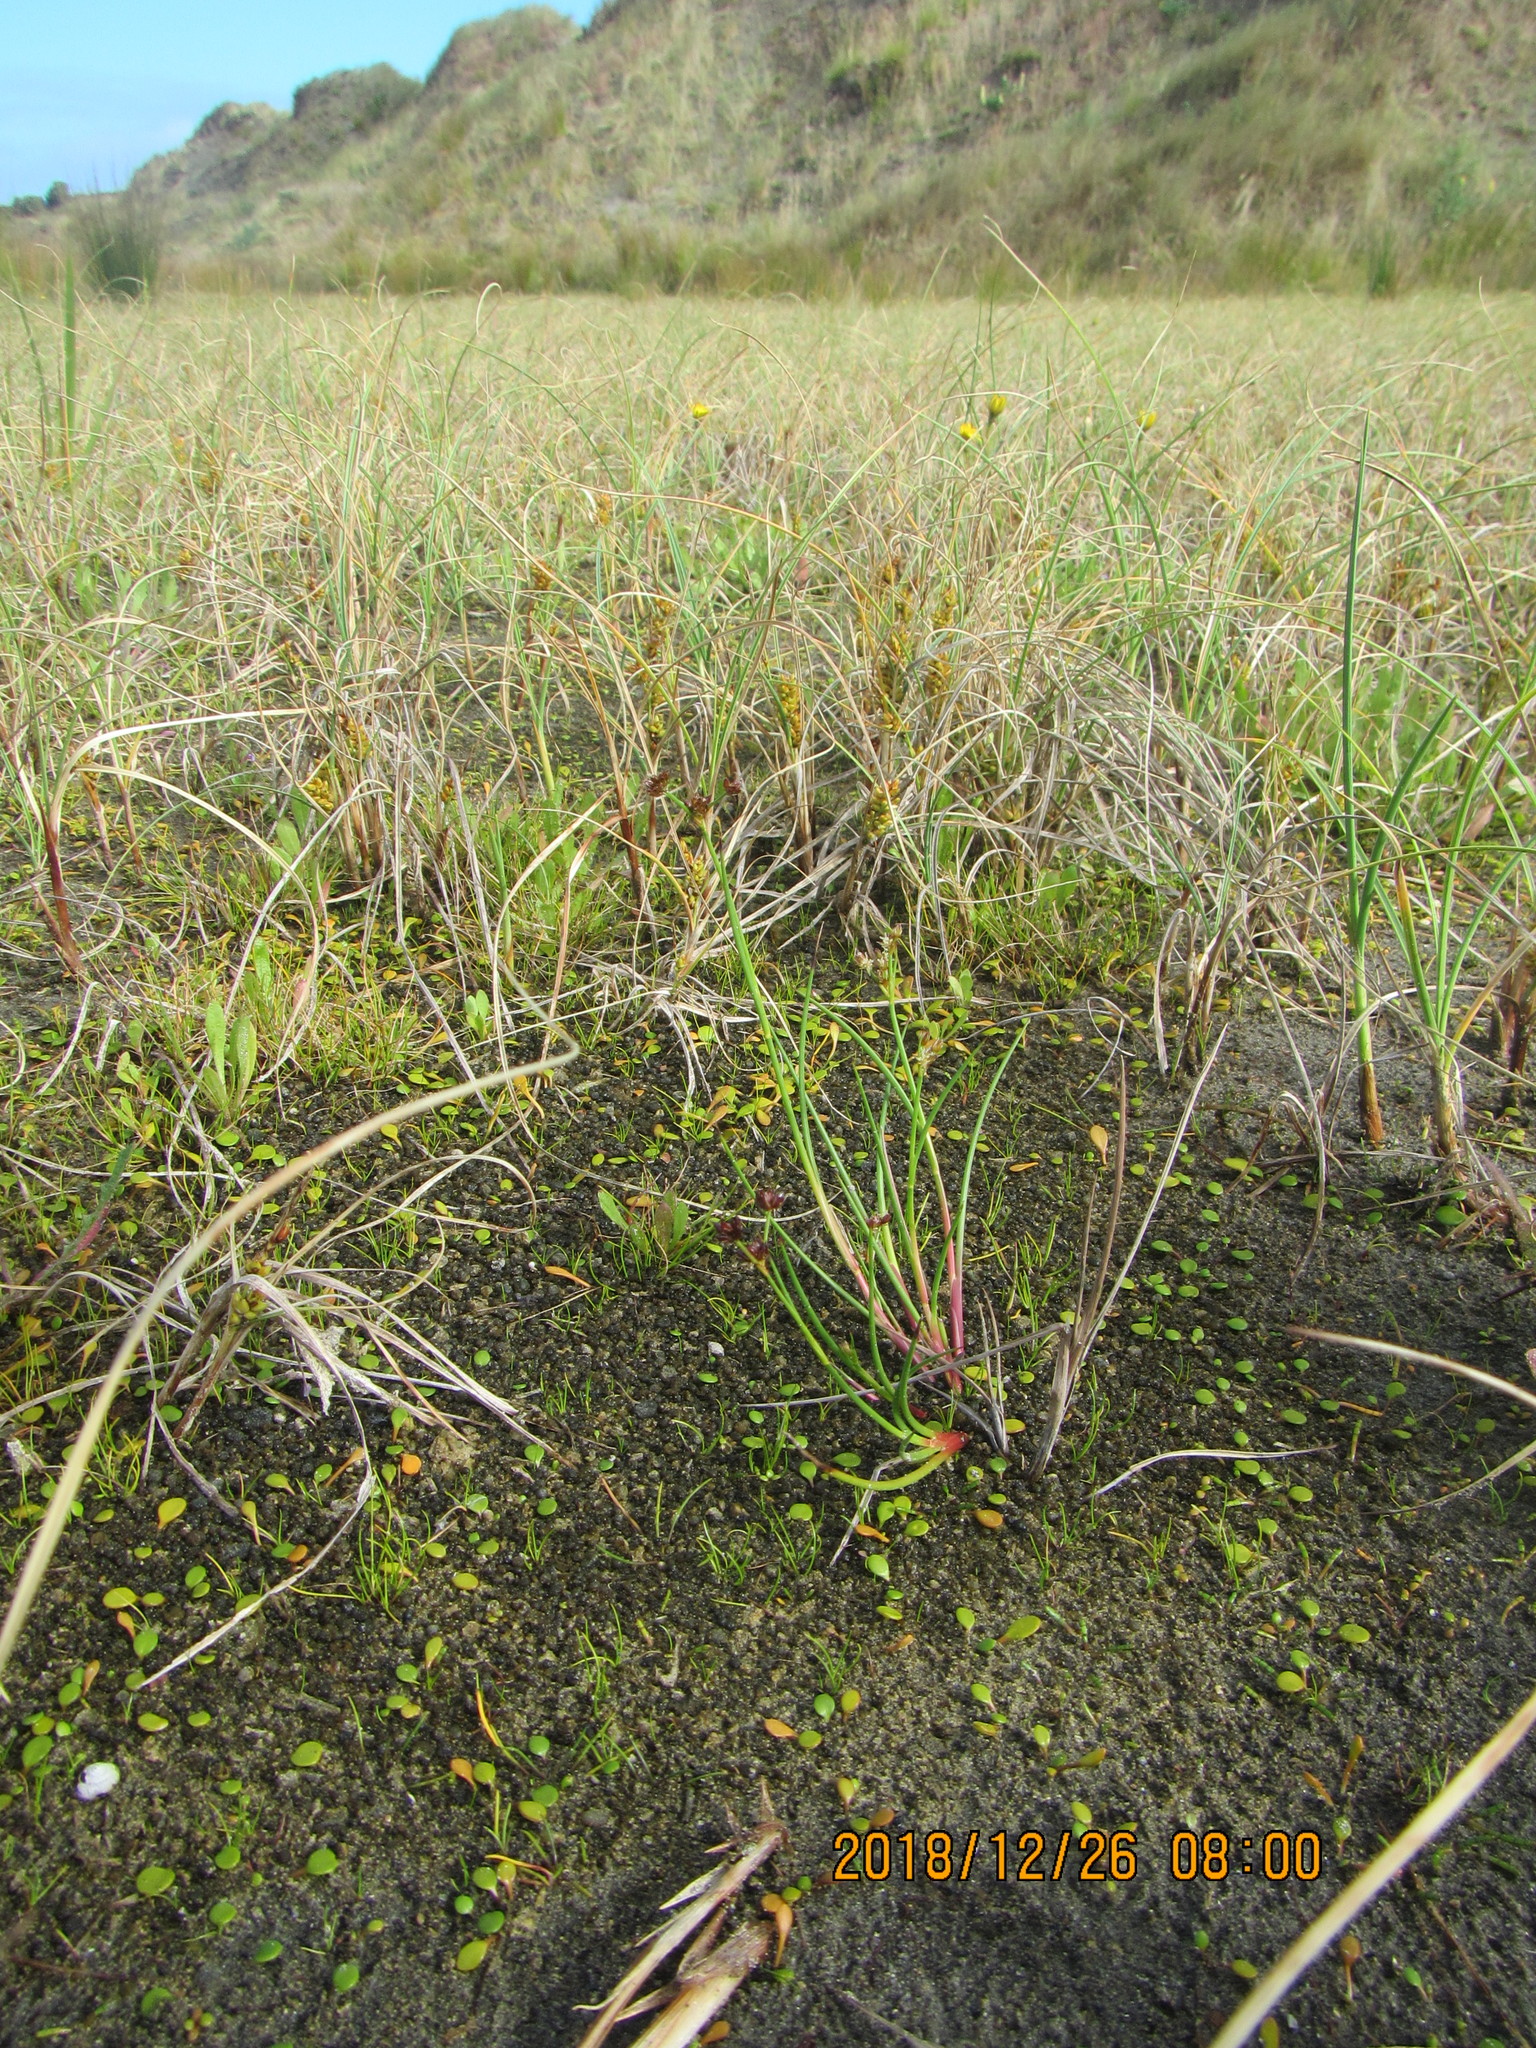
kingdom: Plantae
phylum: Tracheophyta
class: Liliopsida
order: Poales
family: Juncaceae
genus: Juncus
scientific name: Juncus articulatus
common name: Jointed rush
